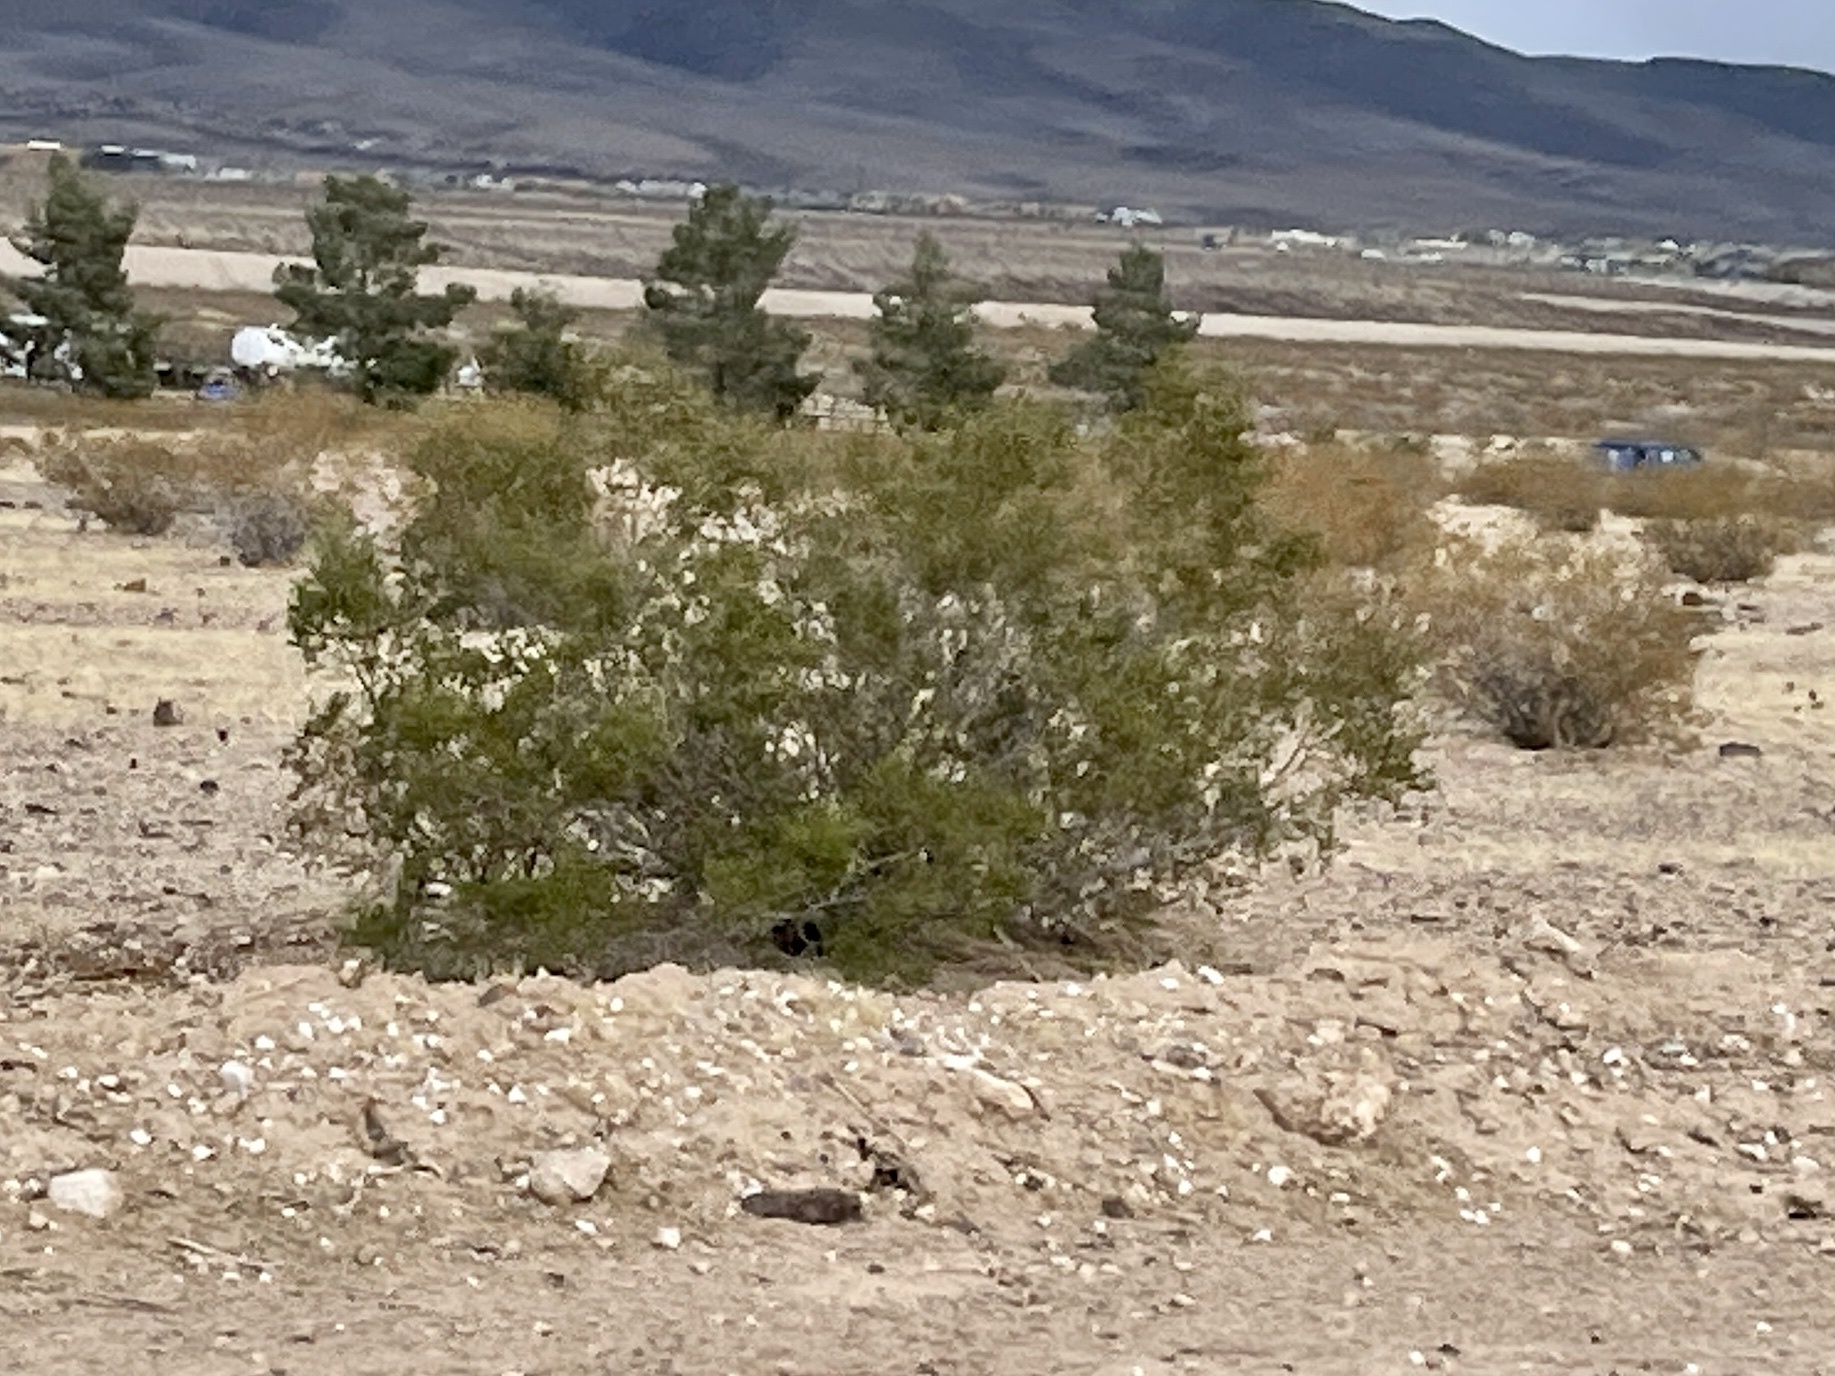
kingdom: Plantae
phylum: Tracheophyta
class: Magnoliopsida
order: Zygophyllales
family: Zygophyllaceae
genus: Larrea
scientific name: Larrea tridentata
